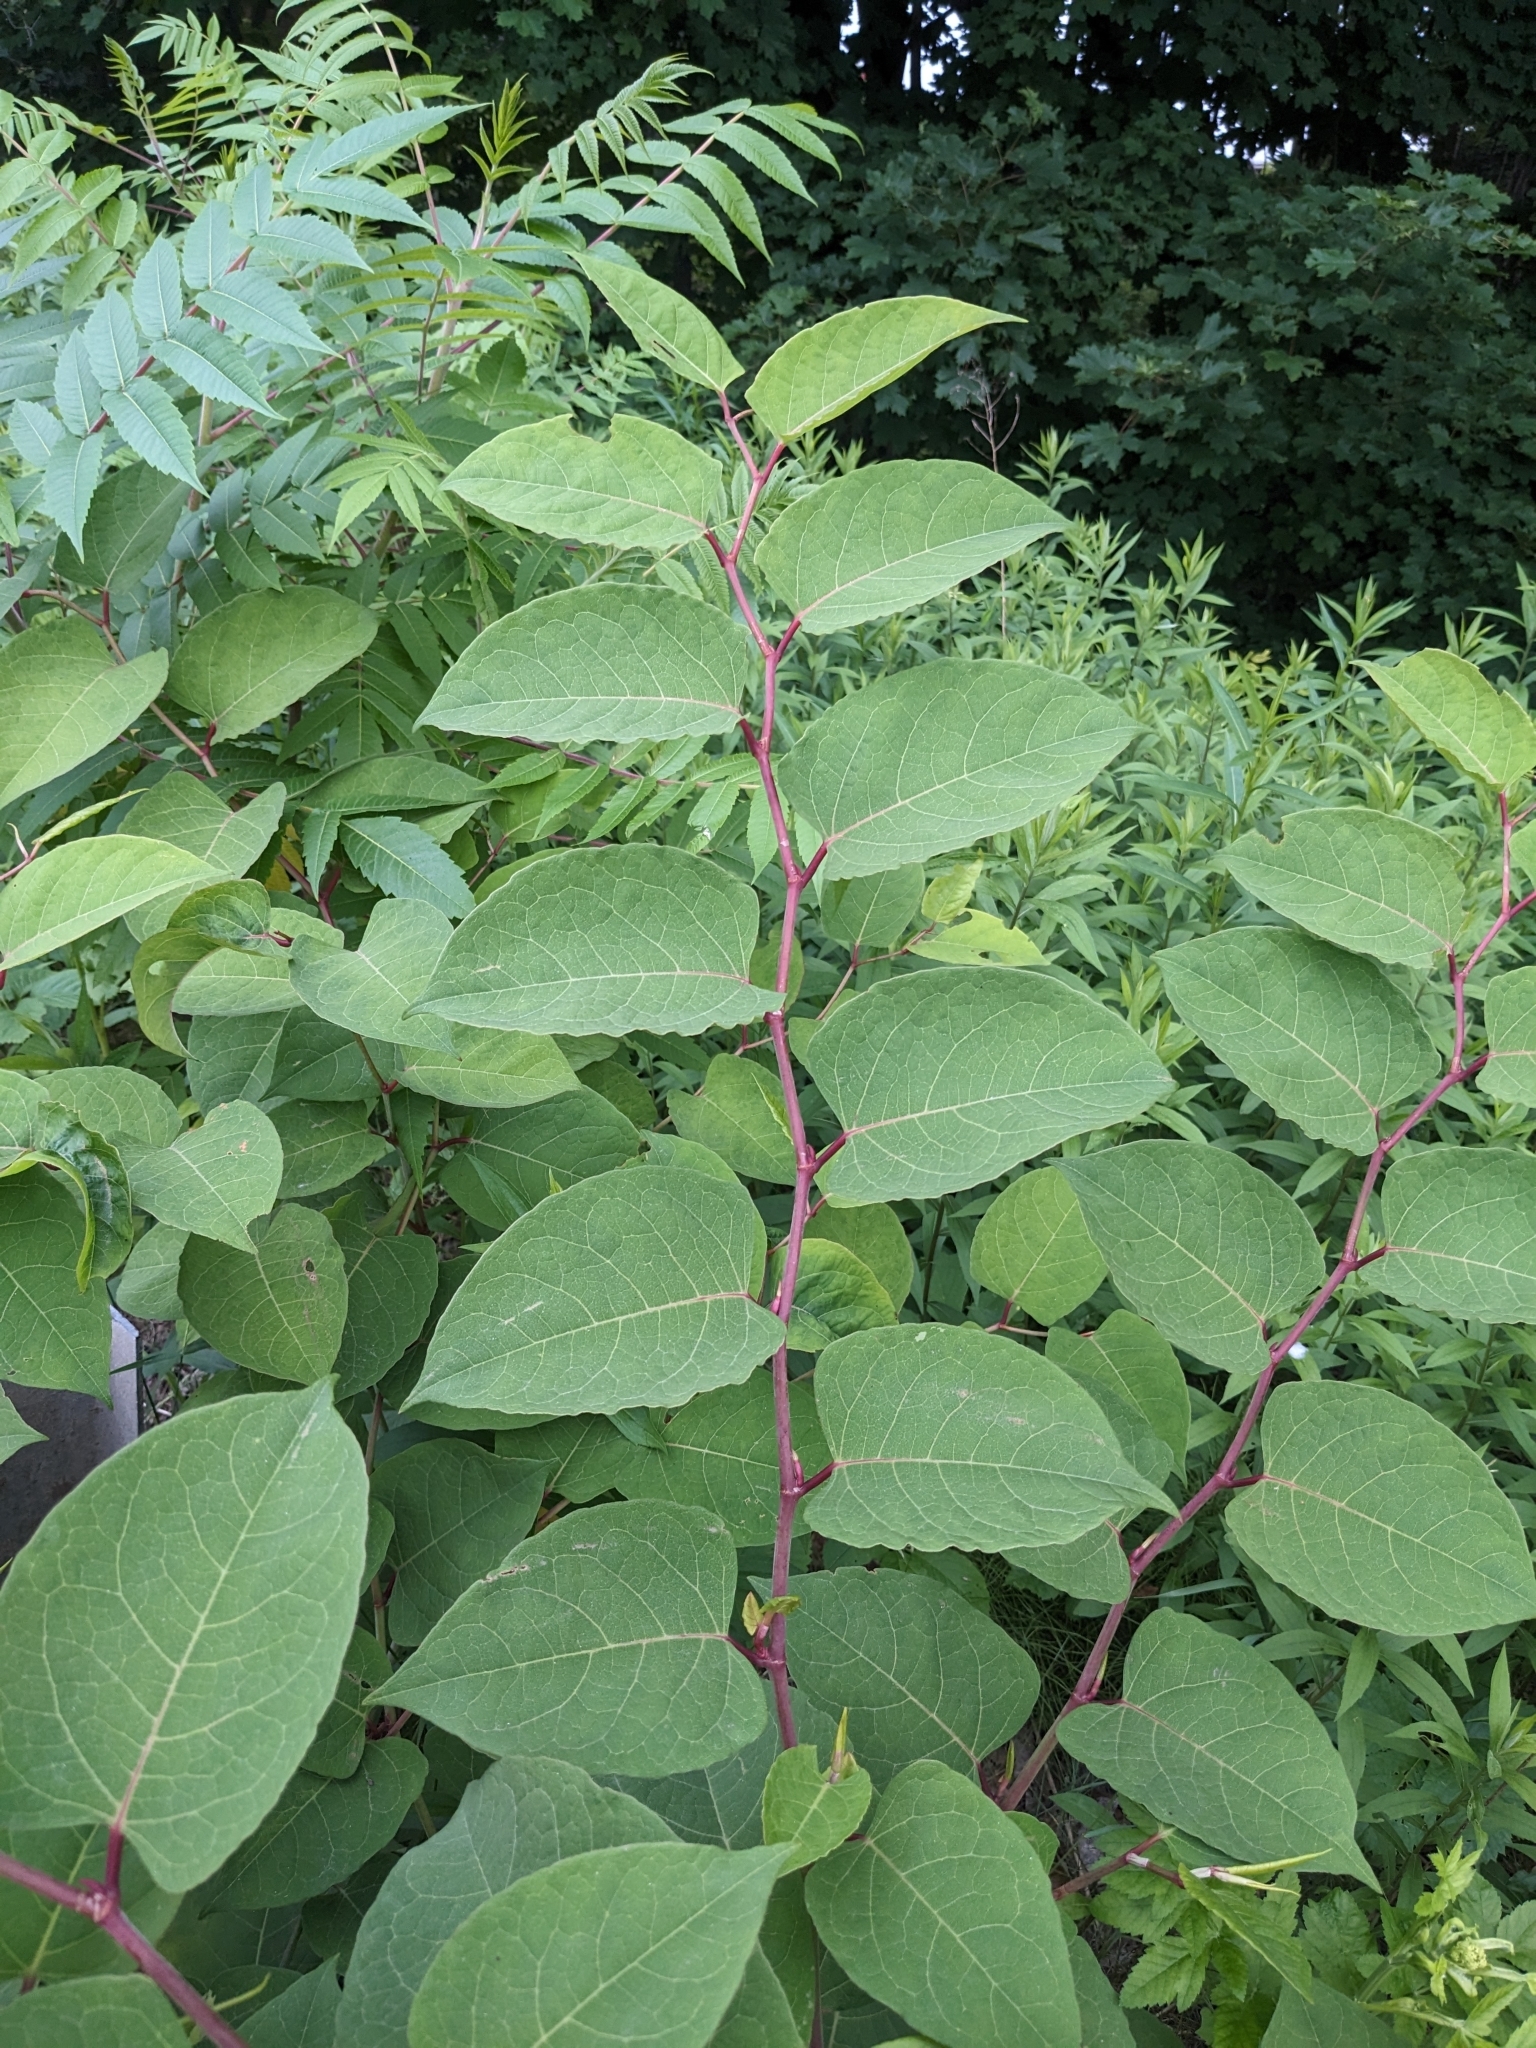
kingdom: Plantae
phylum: Tracheophyta
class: Magnoliopsida
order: Caryophyllales
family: Polygonaceae
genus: Reynoutria
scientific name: Reynoutria japonica
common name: Japanese knotweed
